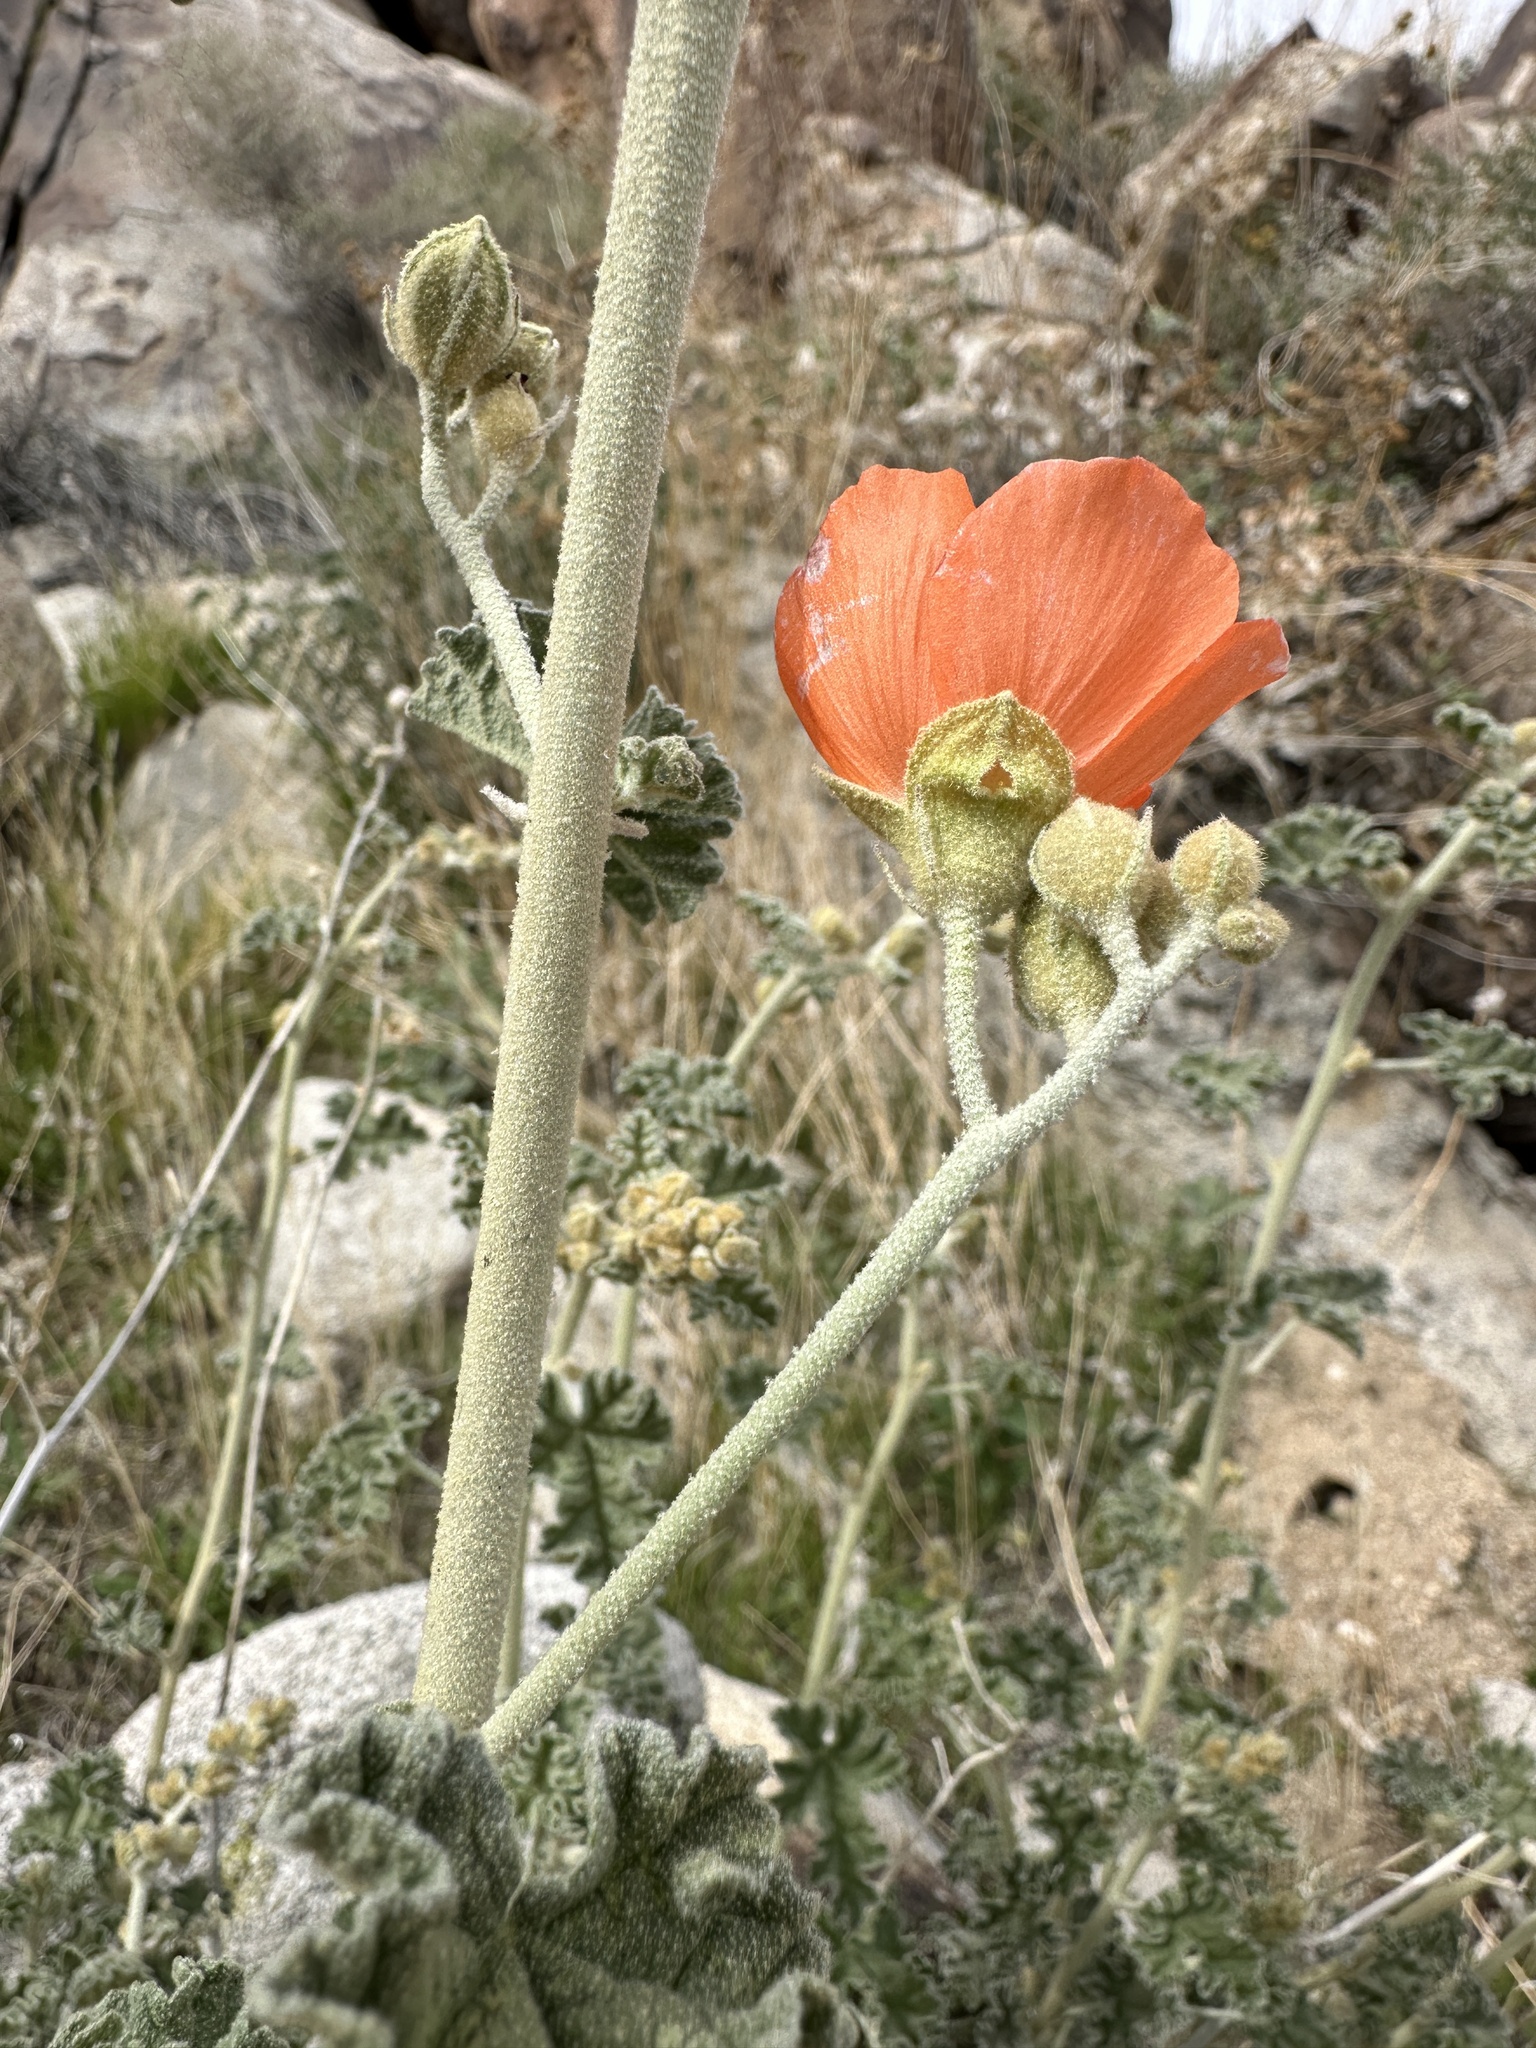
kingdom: Plantae
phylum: Tracheophyta
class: Magnoliopsida
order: Malvales
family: Malvaceae
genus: Sphaeralcea
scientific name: Sphaeralcea ambigua
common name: Apricot globe-mallow
